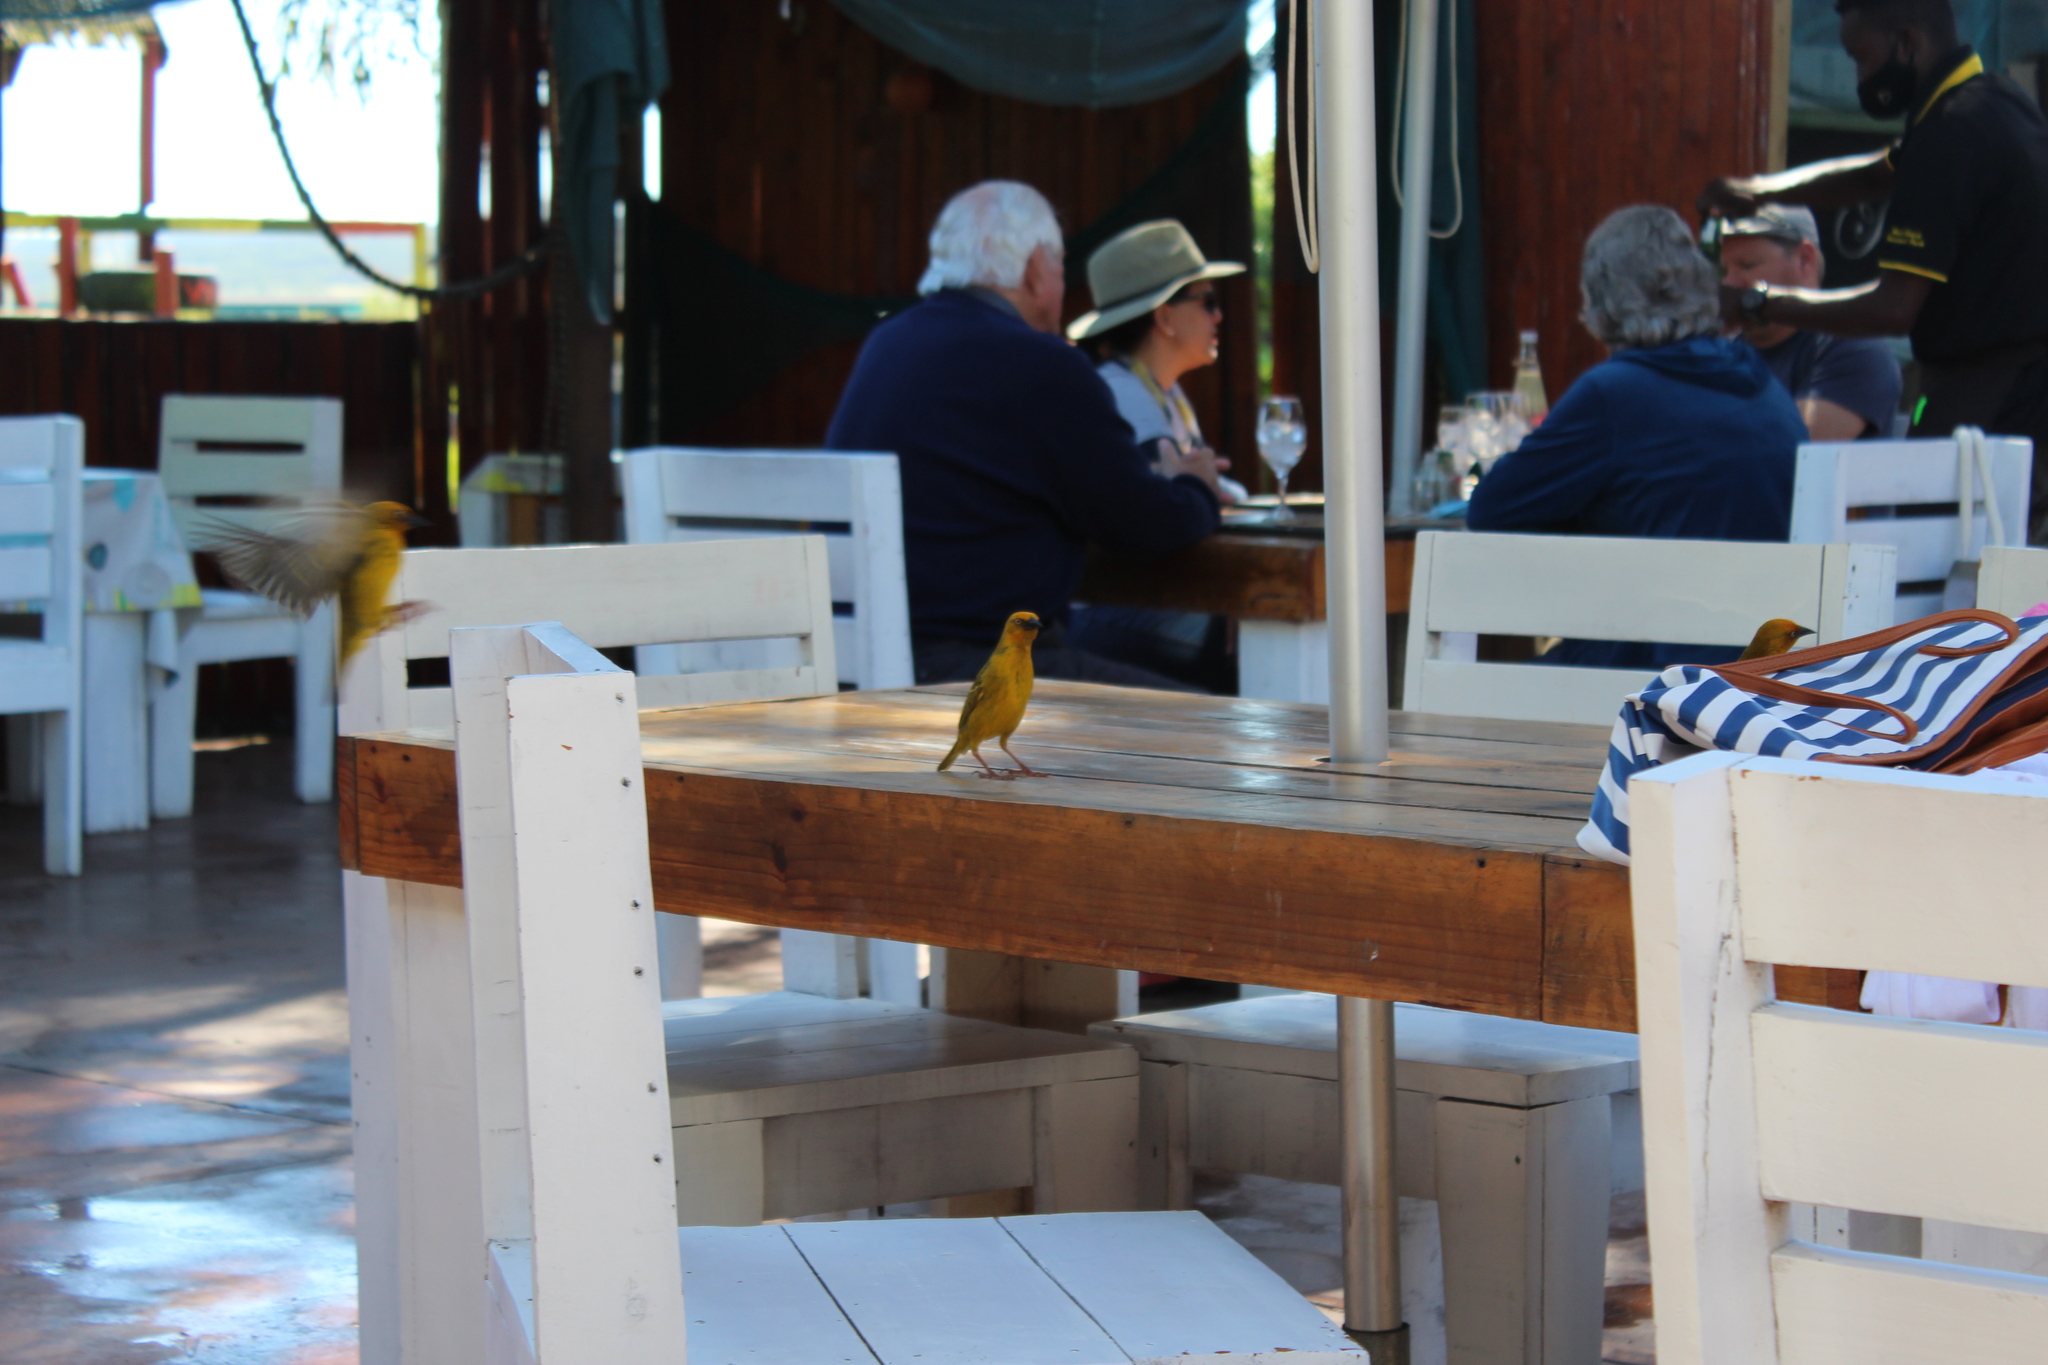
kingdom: Animalia
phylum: Chordata
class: Aves
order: Passeriformes
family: Ploceidae
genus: Ploceus
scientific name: Ploceus capensis
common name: Cape weaver
